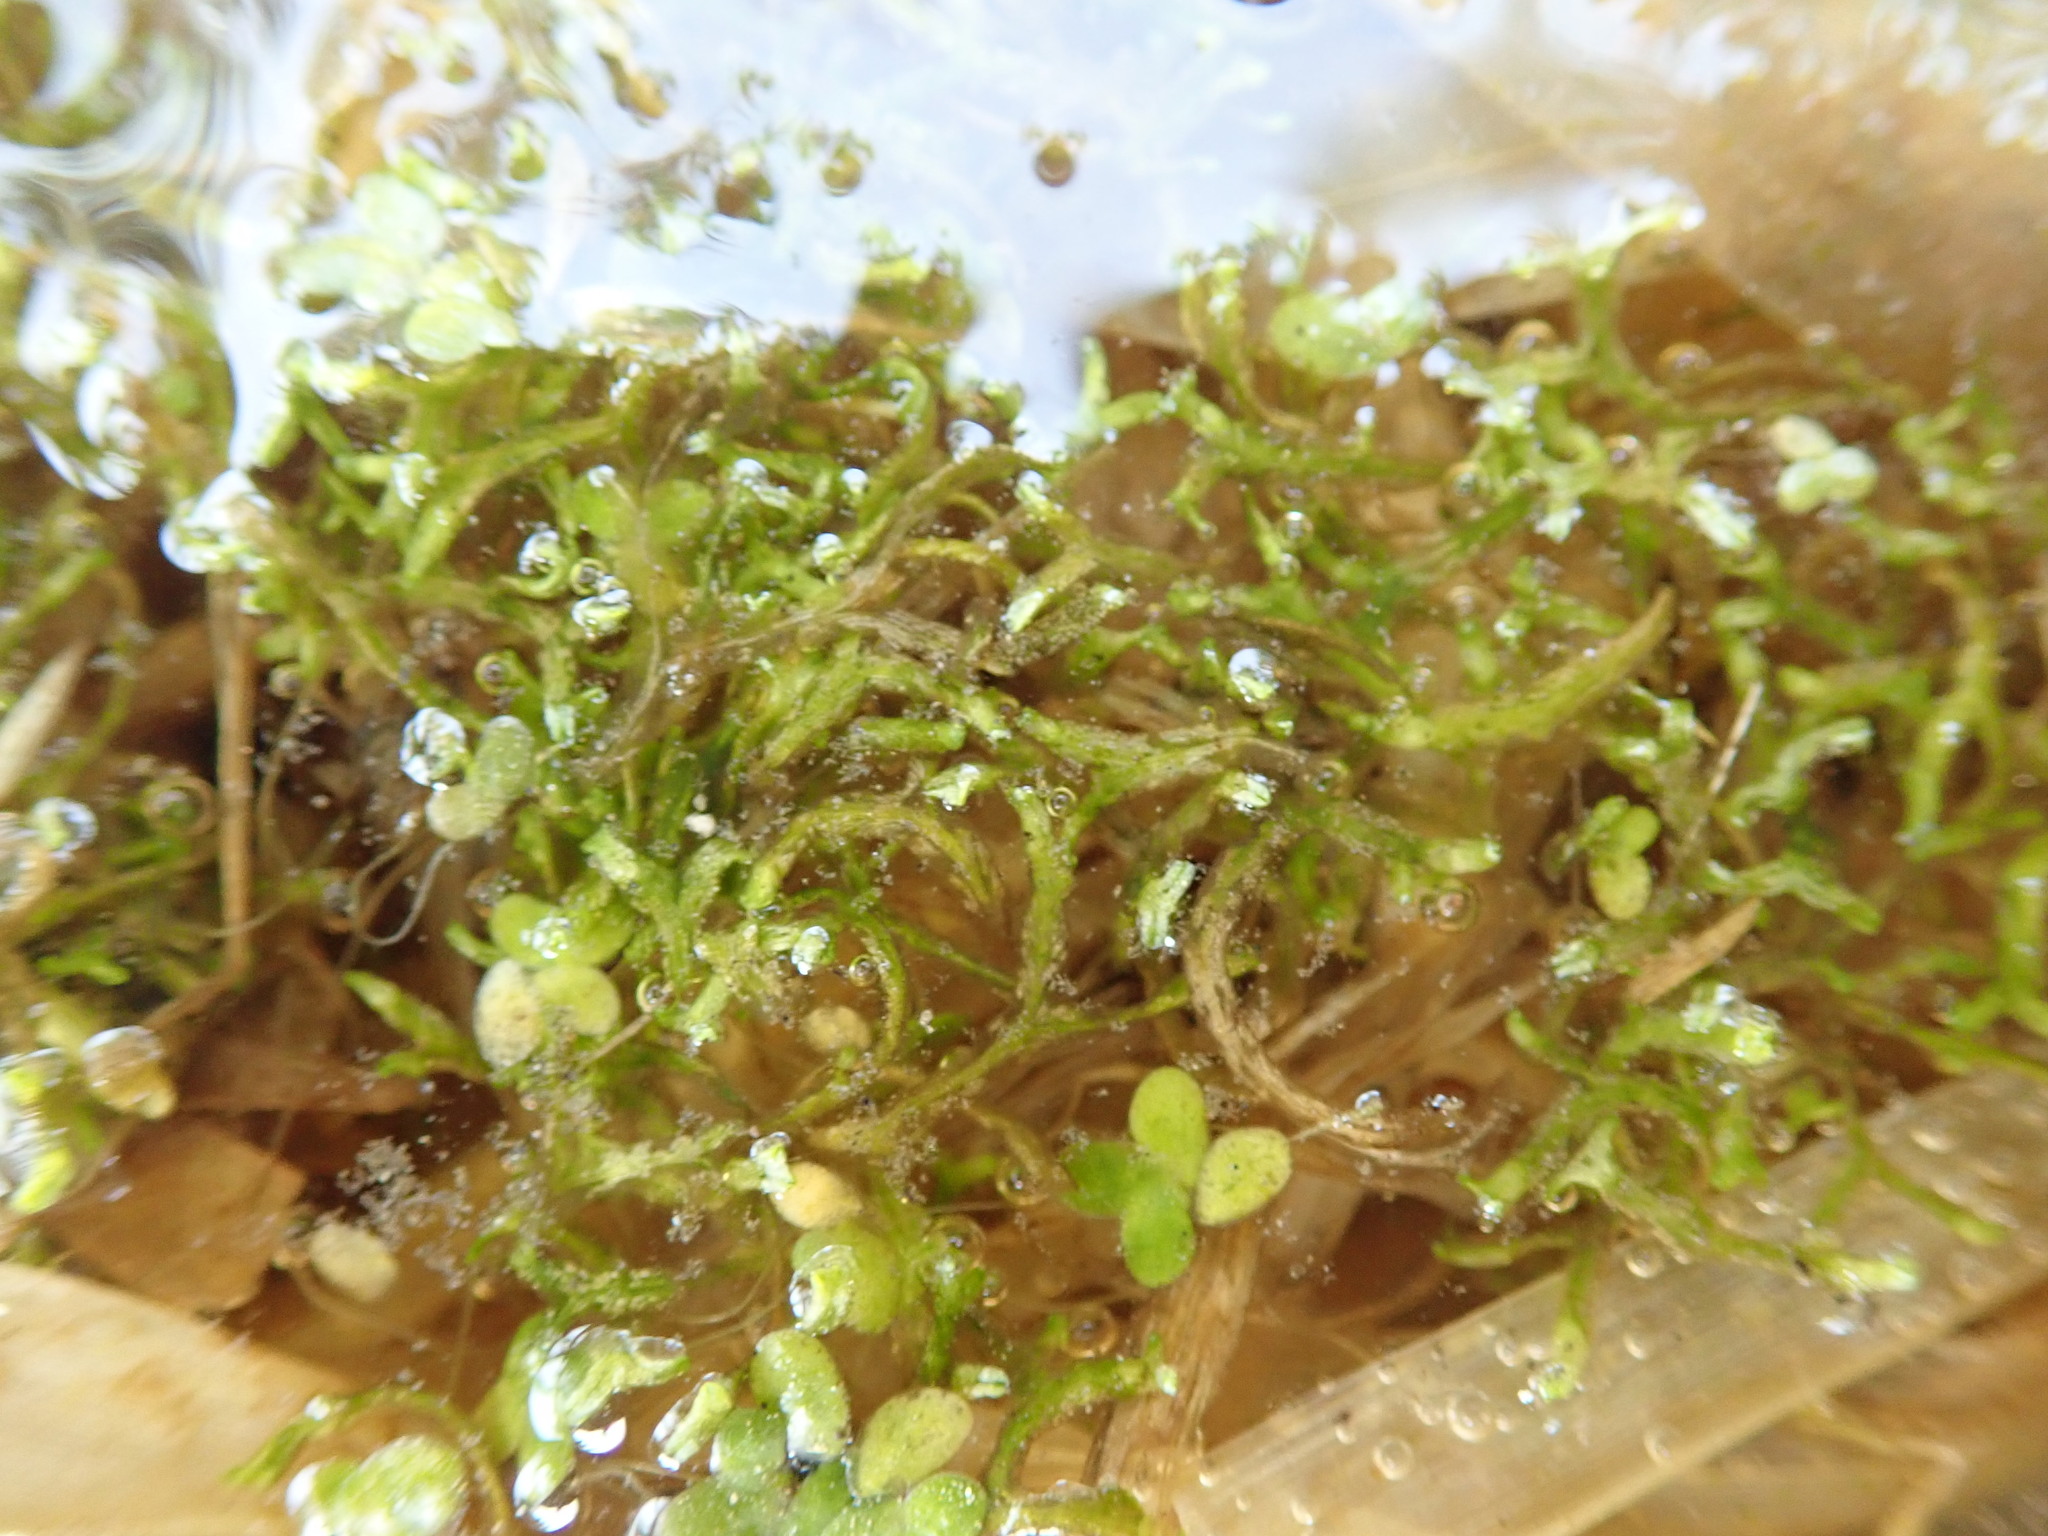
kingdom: Plantae
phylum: Marchantiophyta
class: Marchantiopsida
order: Marchantiales
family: Ricciaceae
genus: Riccia
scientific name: Riccia fluitans
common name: Floating crystalwort
